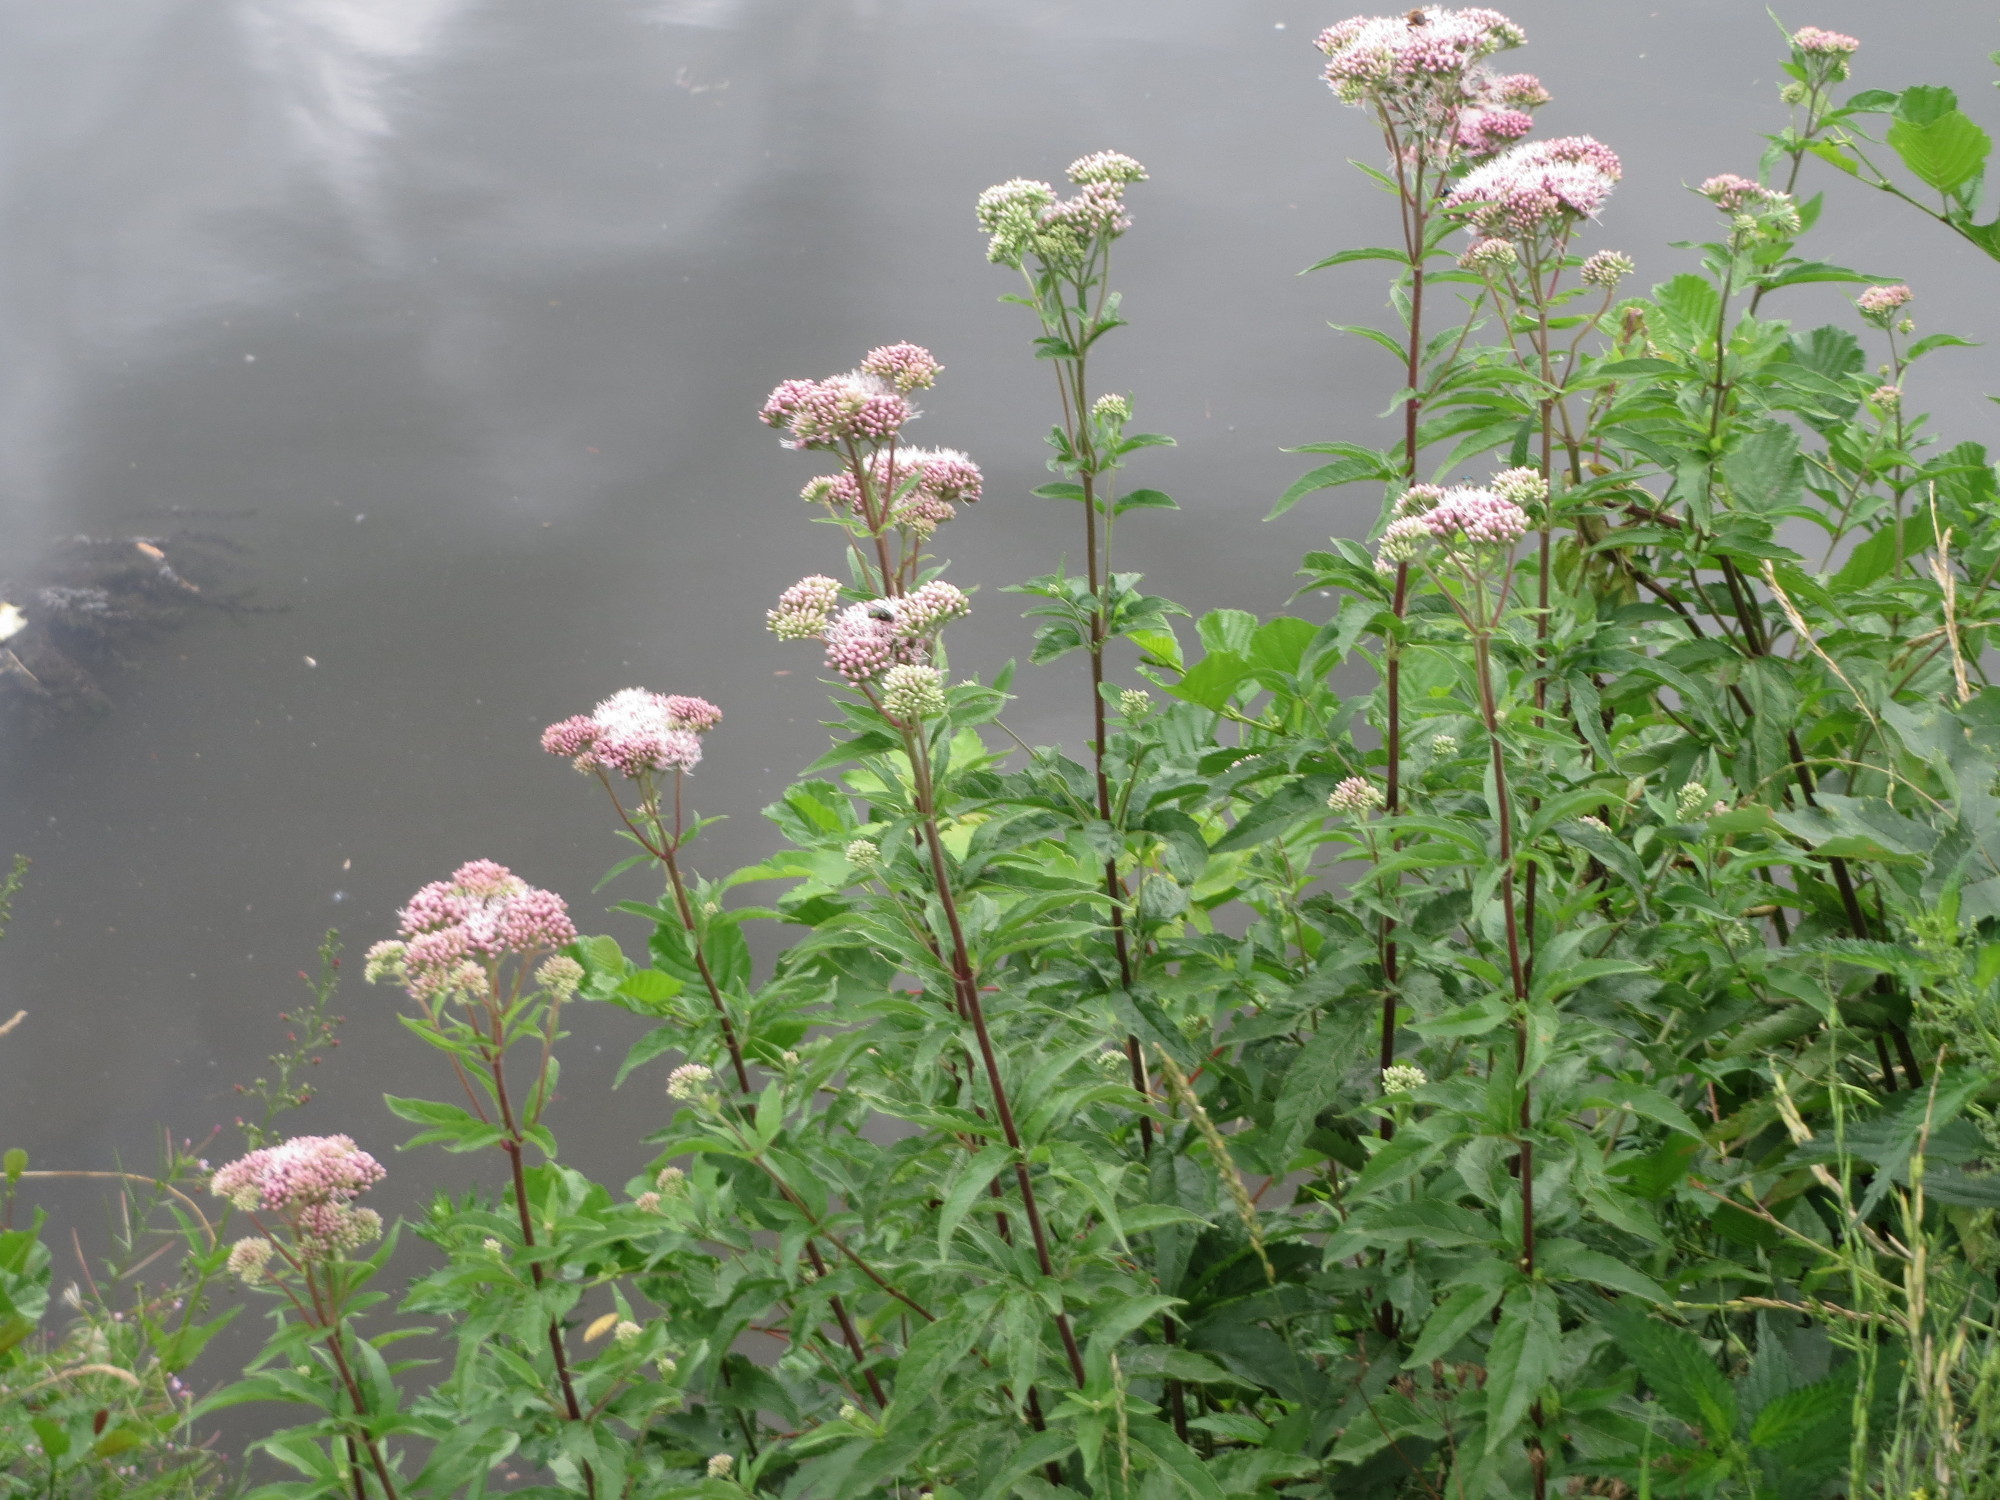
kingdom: Plantae
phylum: Tracheophyta
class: Magnoliopsida
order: Asterales
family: Asteraceae
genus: Eupatorium
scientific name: Eupatorium cannabinum
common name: Hemp-agrimony
